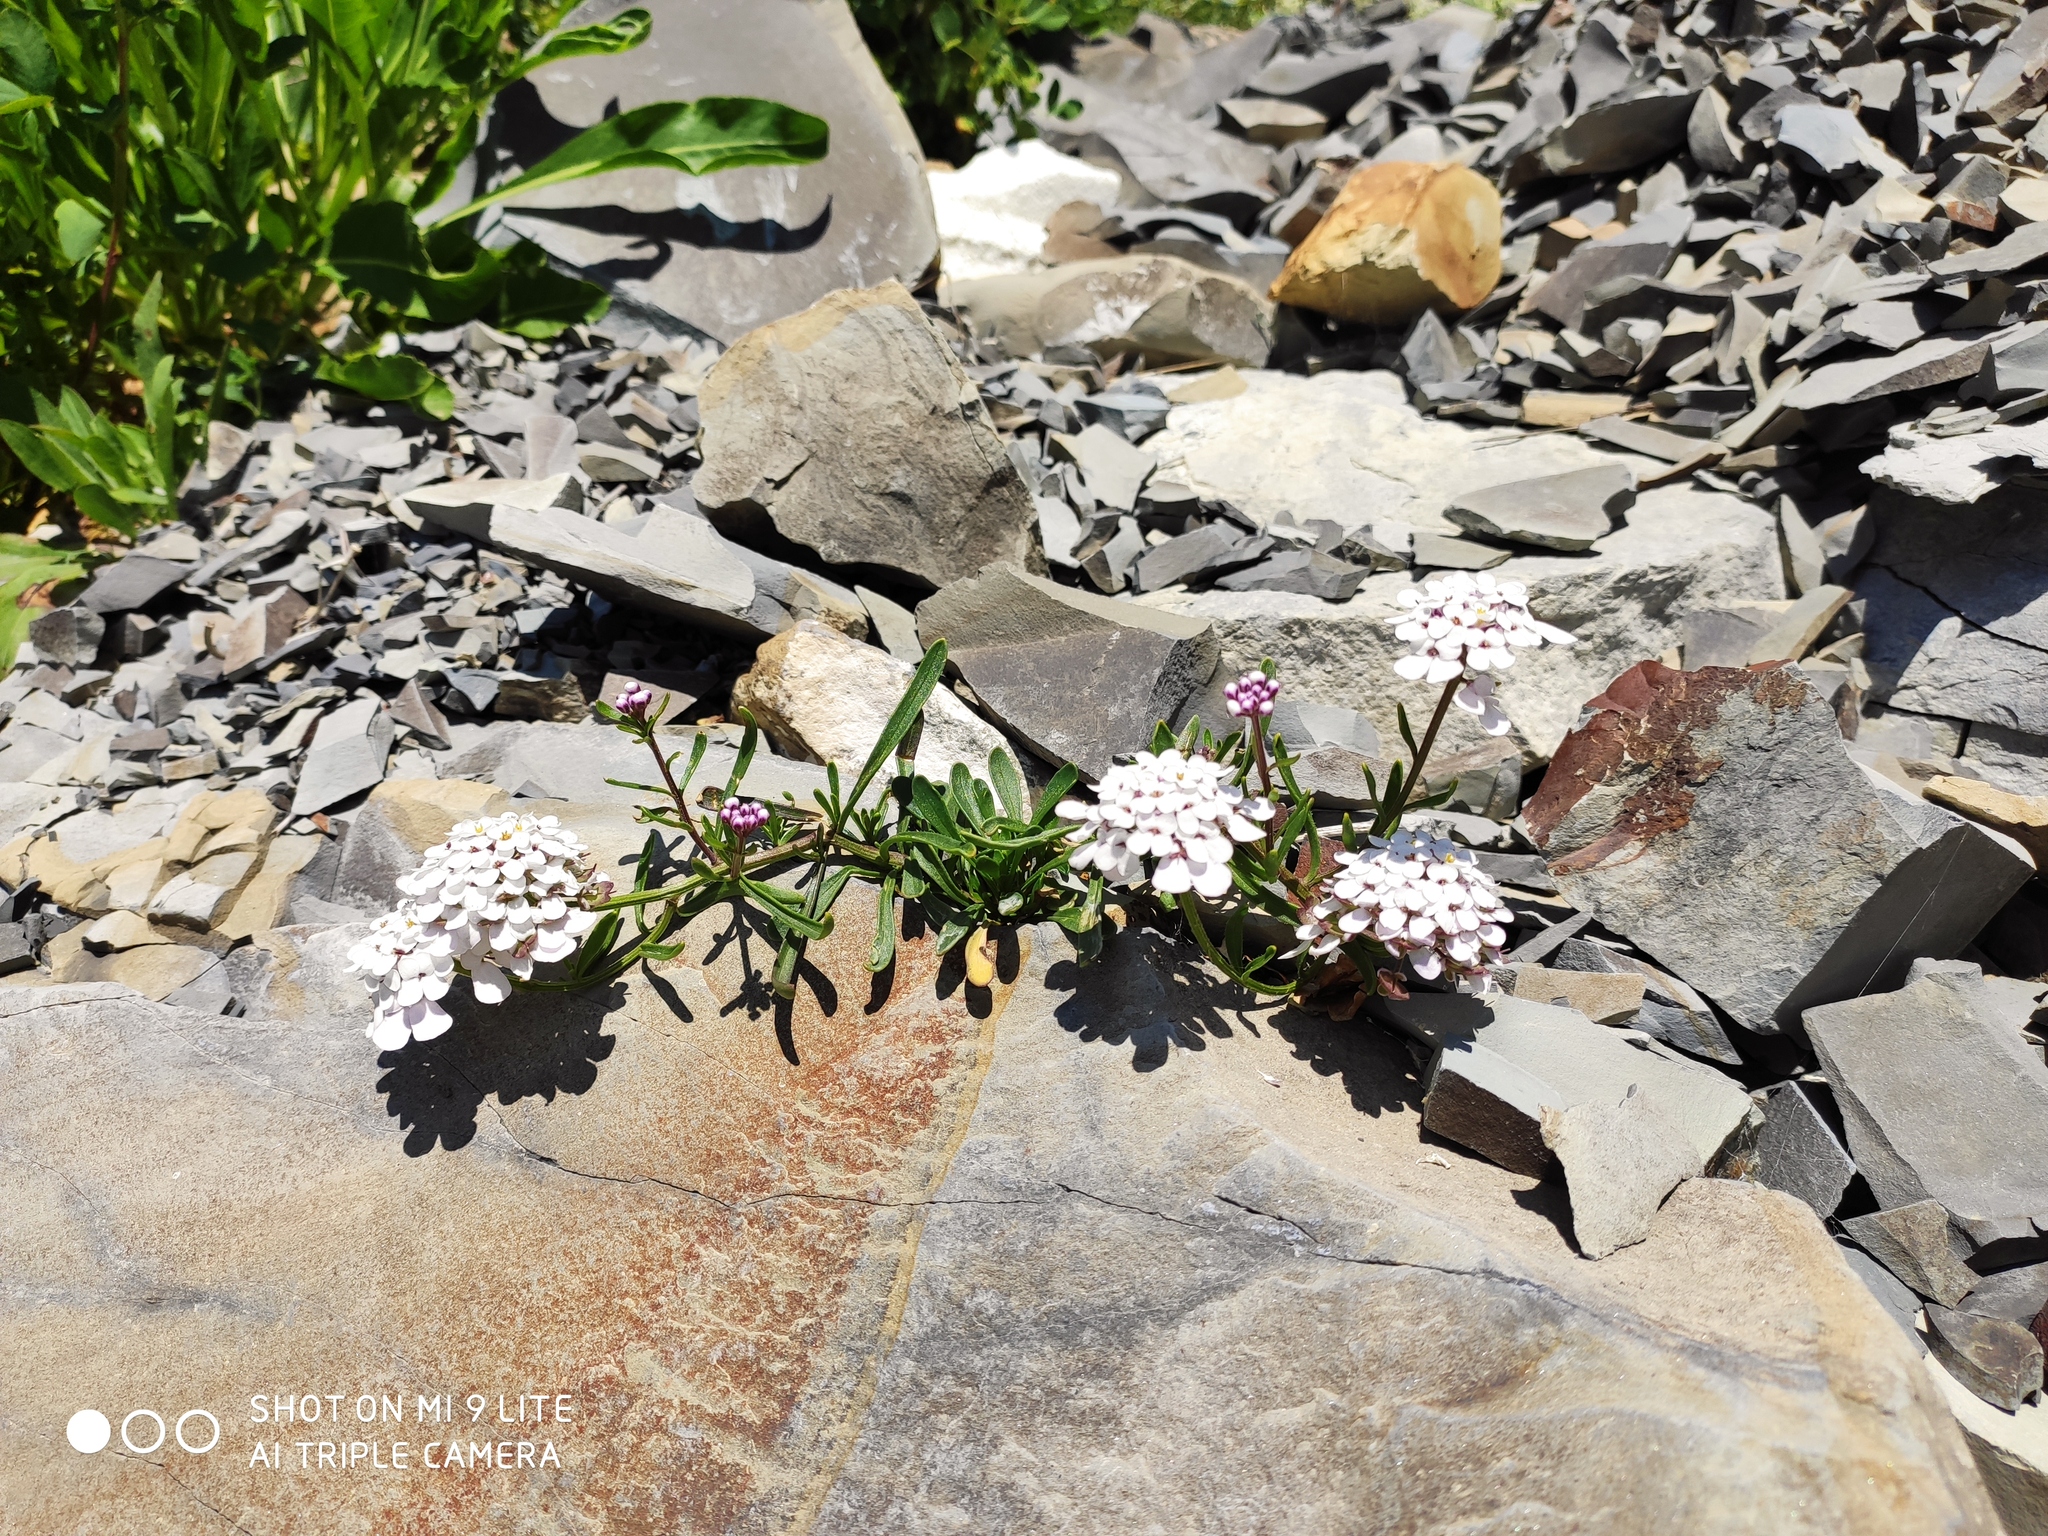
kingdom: Plantae
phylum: Tracheophyta
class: Magnoliopsida
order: Brassicales
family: Brassicaceae
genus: Iberis
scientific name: Iberis simplex
